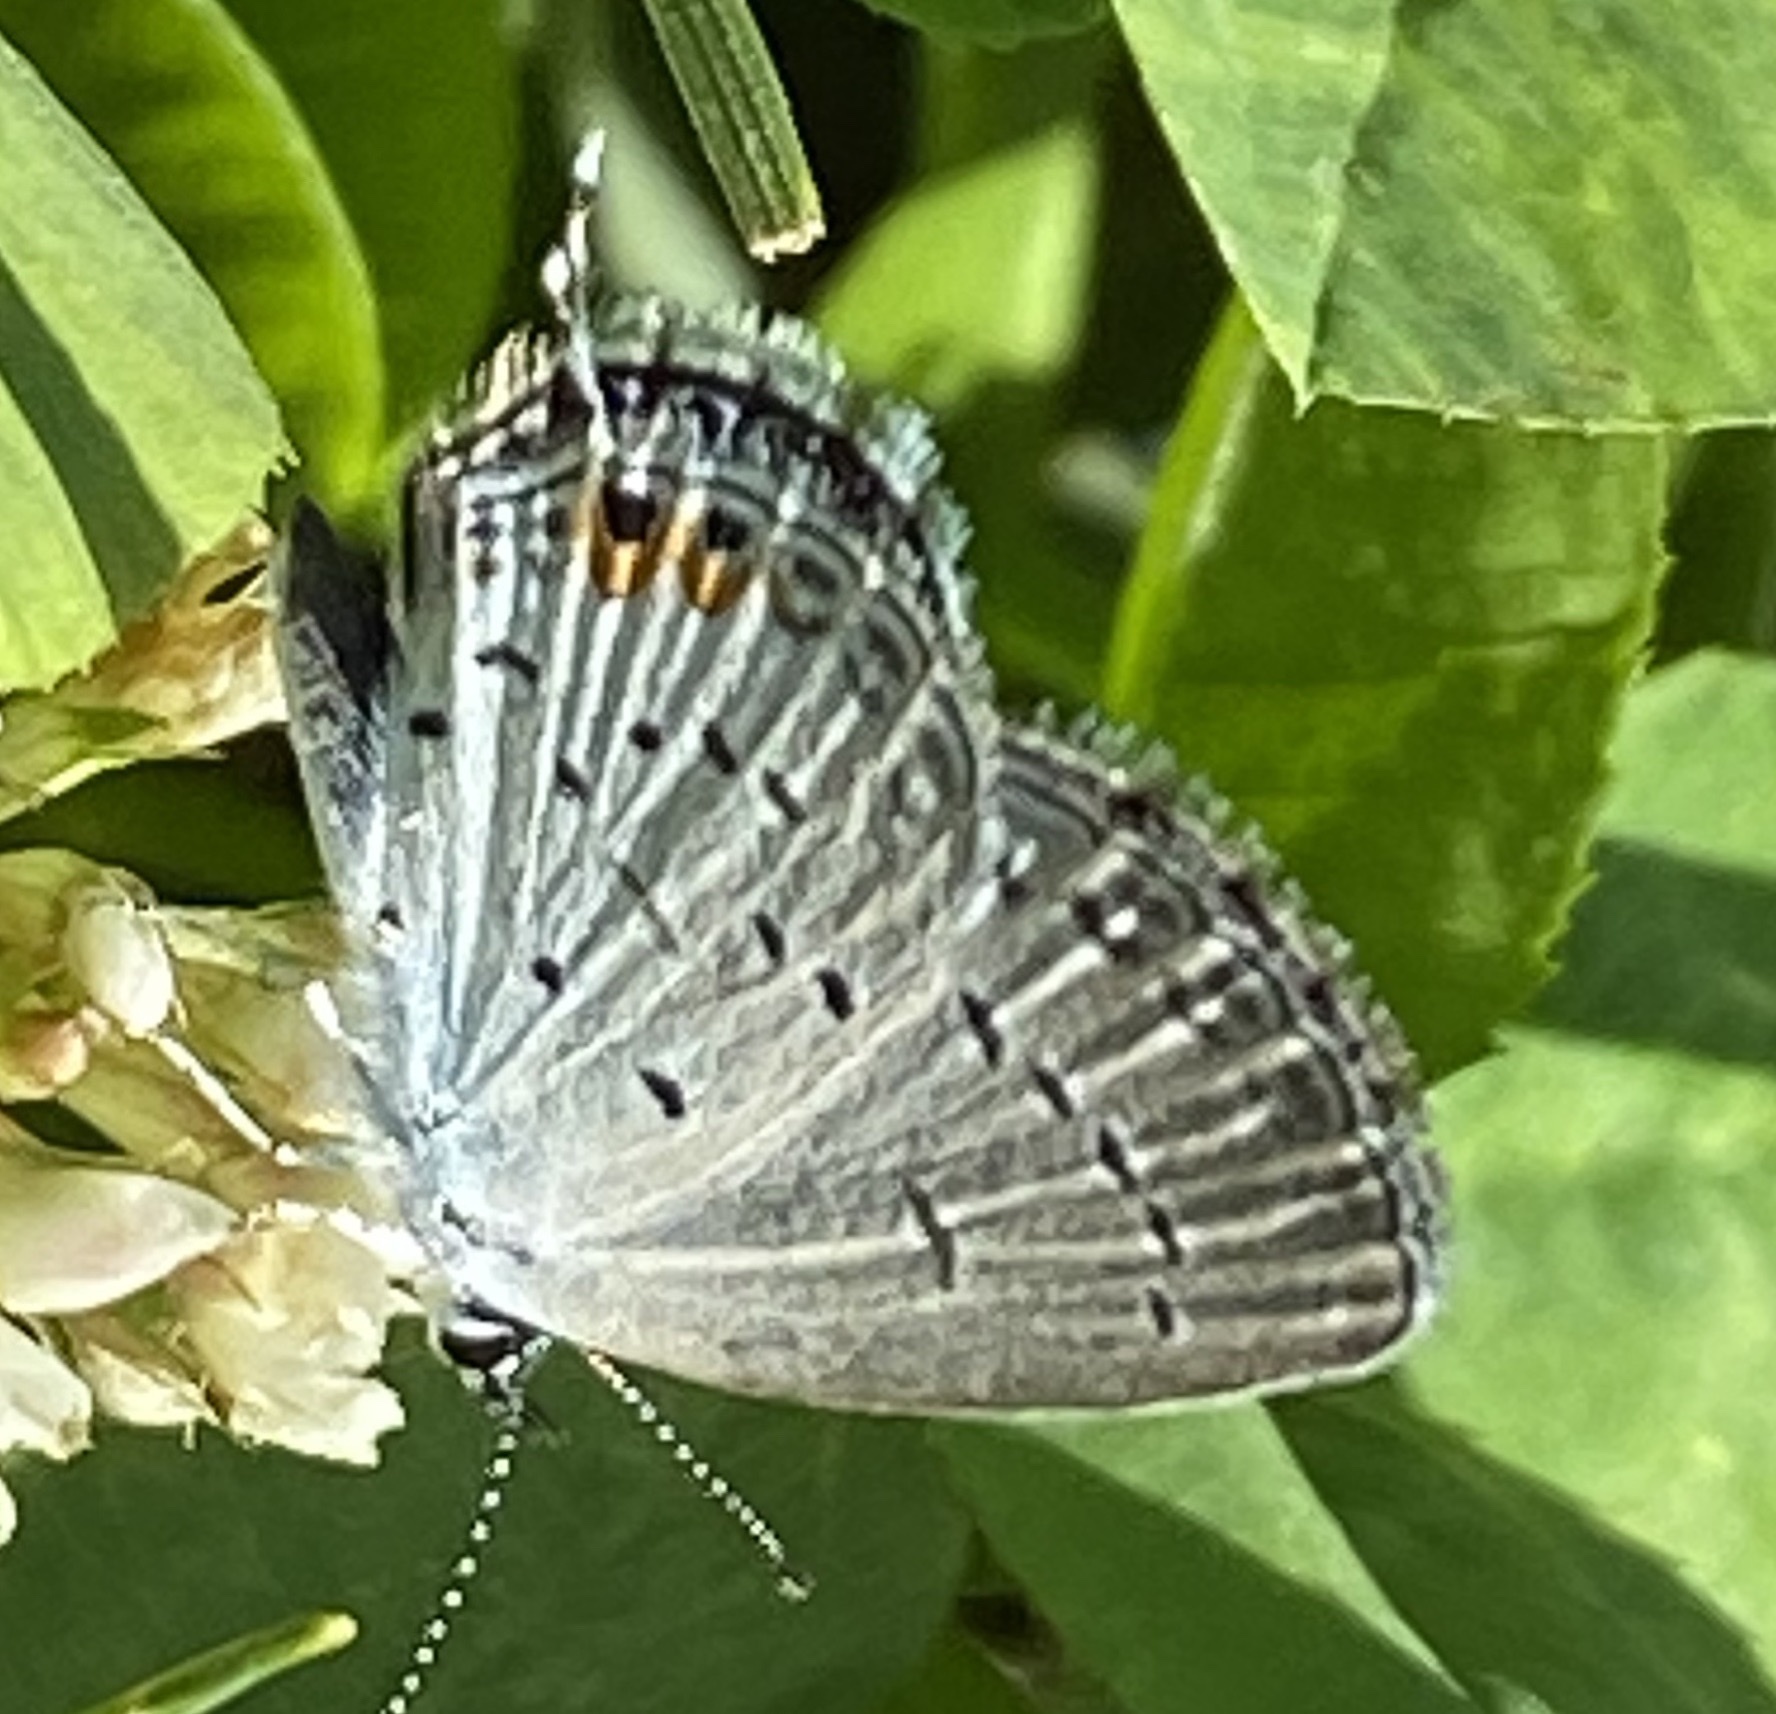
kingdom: Animalia
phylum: Arthropoda
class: Insecta
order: Lepidoptera
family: Lycaenidae
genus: Elkalyce
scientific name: Elkalyce comyntas
